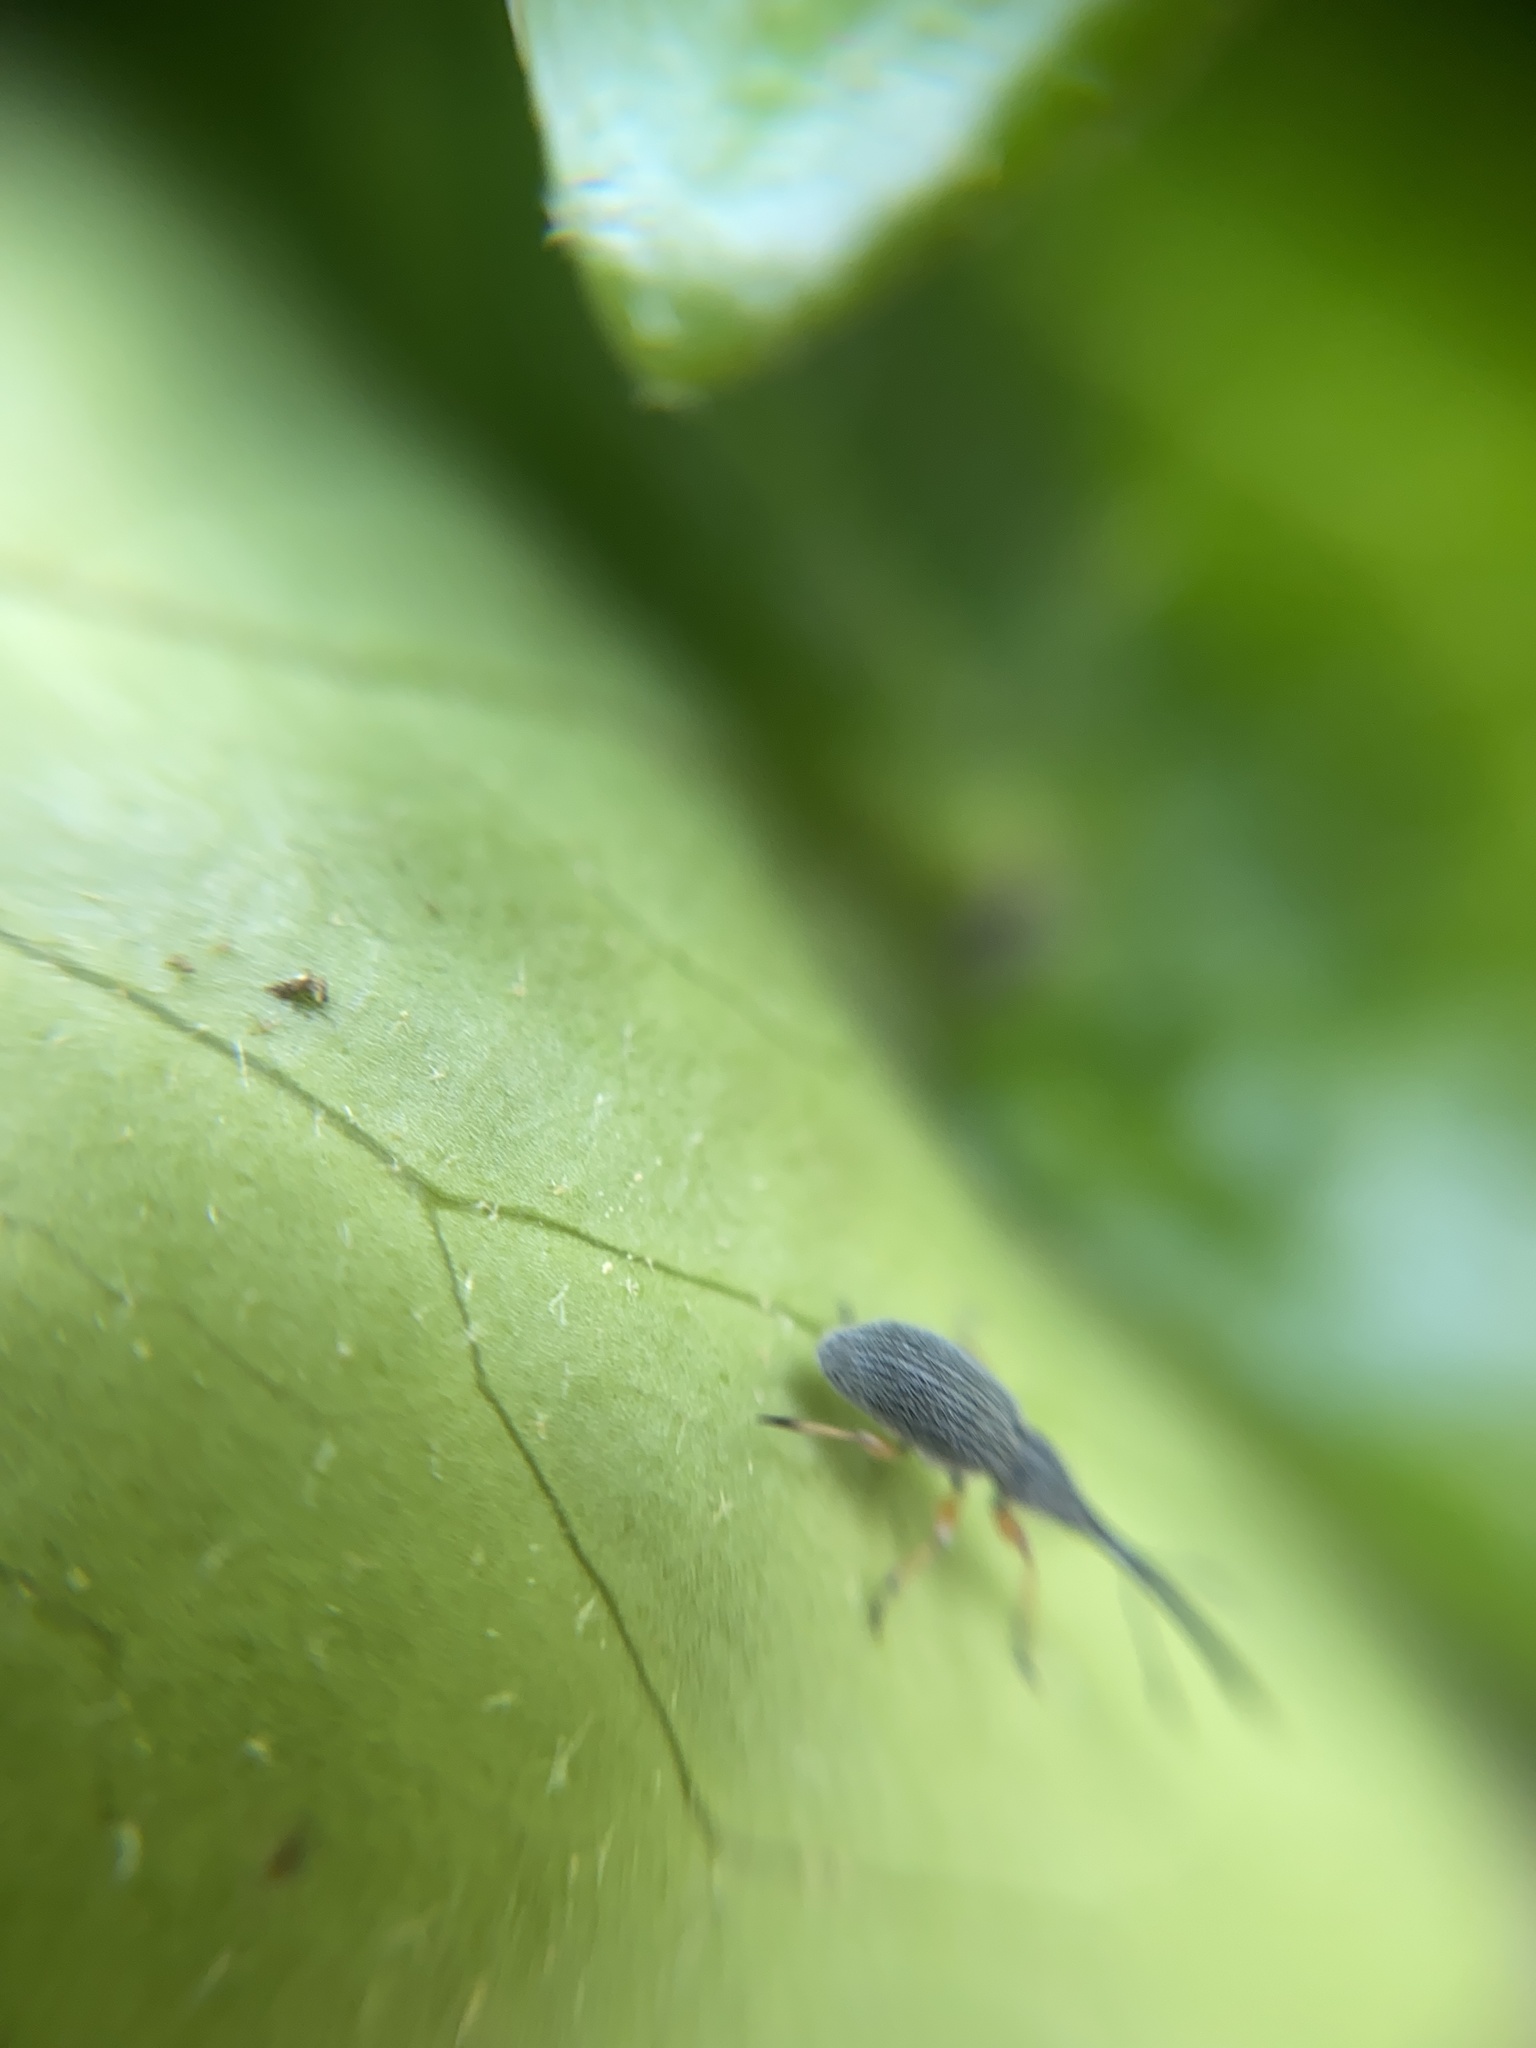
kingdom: Animalia
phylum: Arthropoda
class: Insecta
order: Coleoptera
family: Brentidae
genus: Rhopalapion
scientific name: Rhopalapion longirostre
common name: Hollyhock weevil
